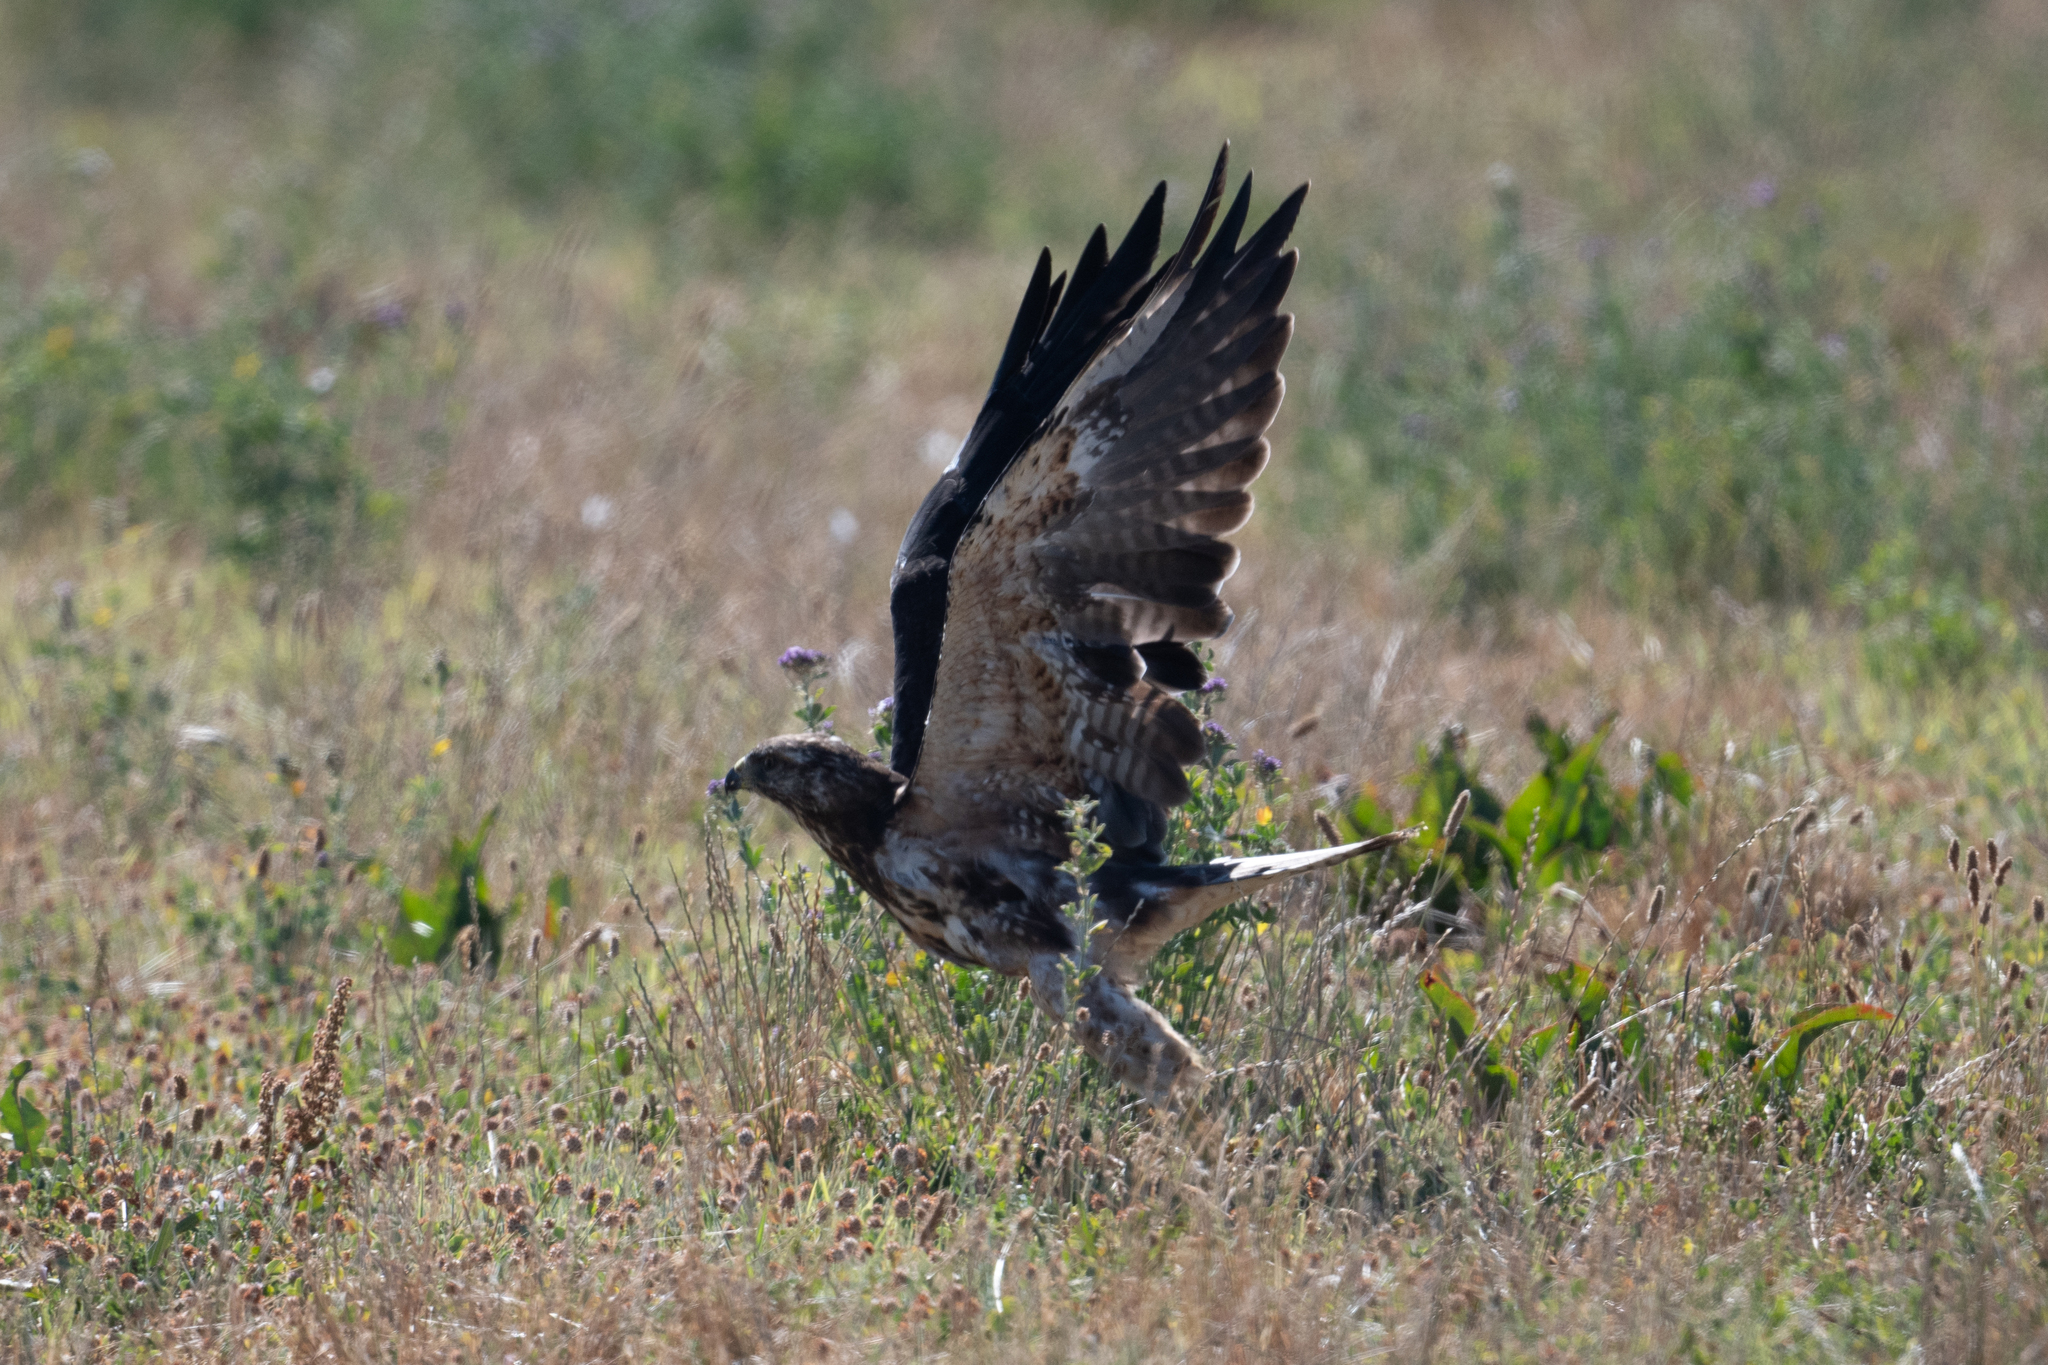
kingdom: Animalia
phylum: Chordata
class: Aves
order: Accipitriformes
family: Accipitridae
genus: Buteo
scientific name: Buteo swainsoni
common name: Swainson's hawk
